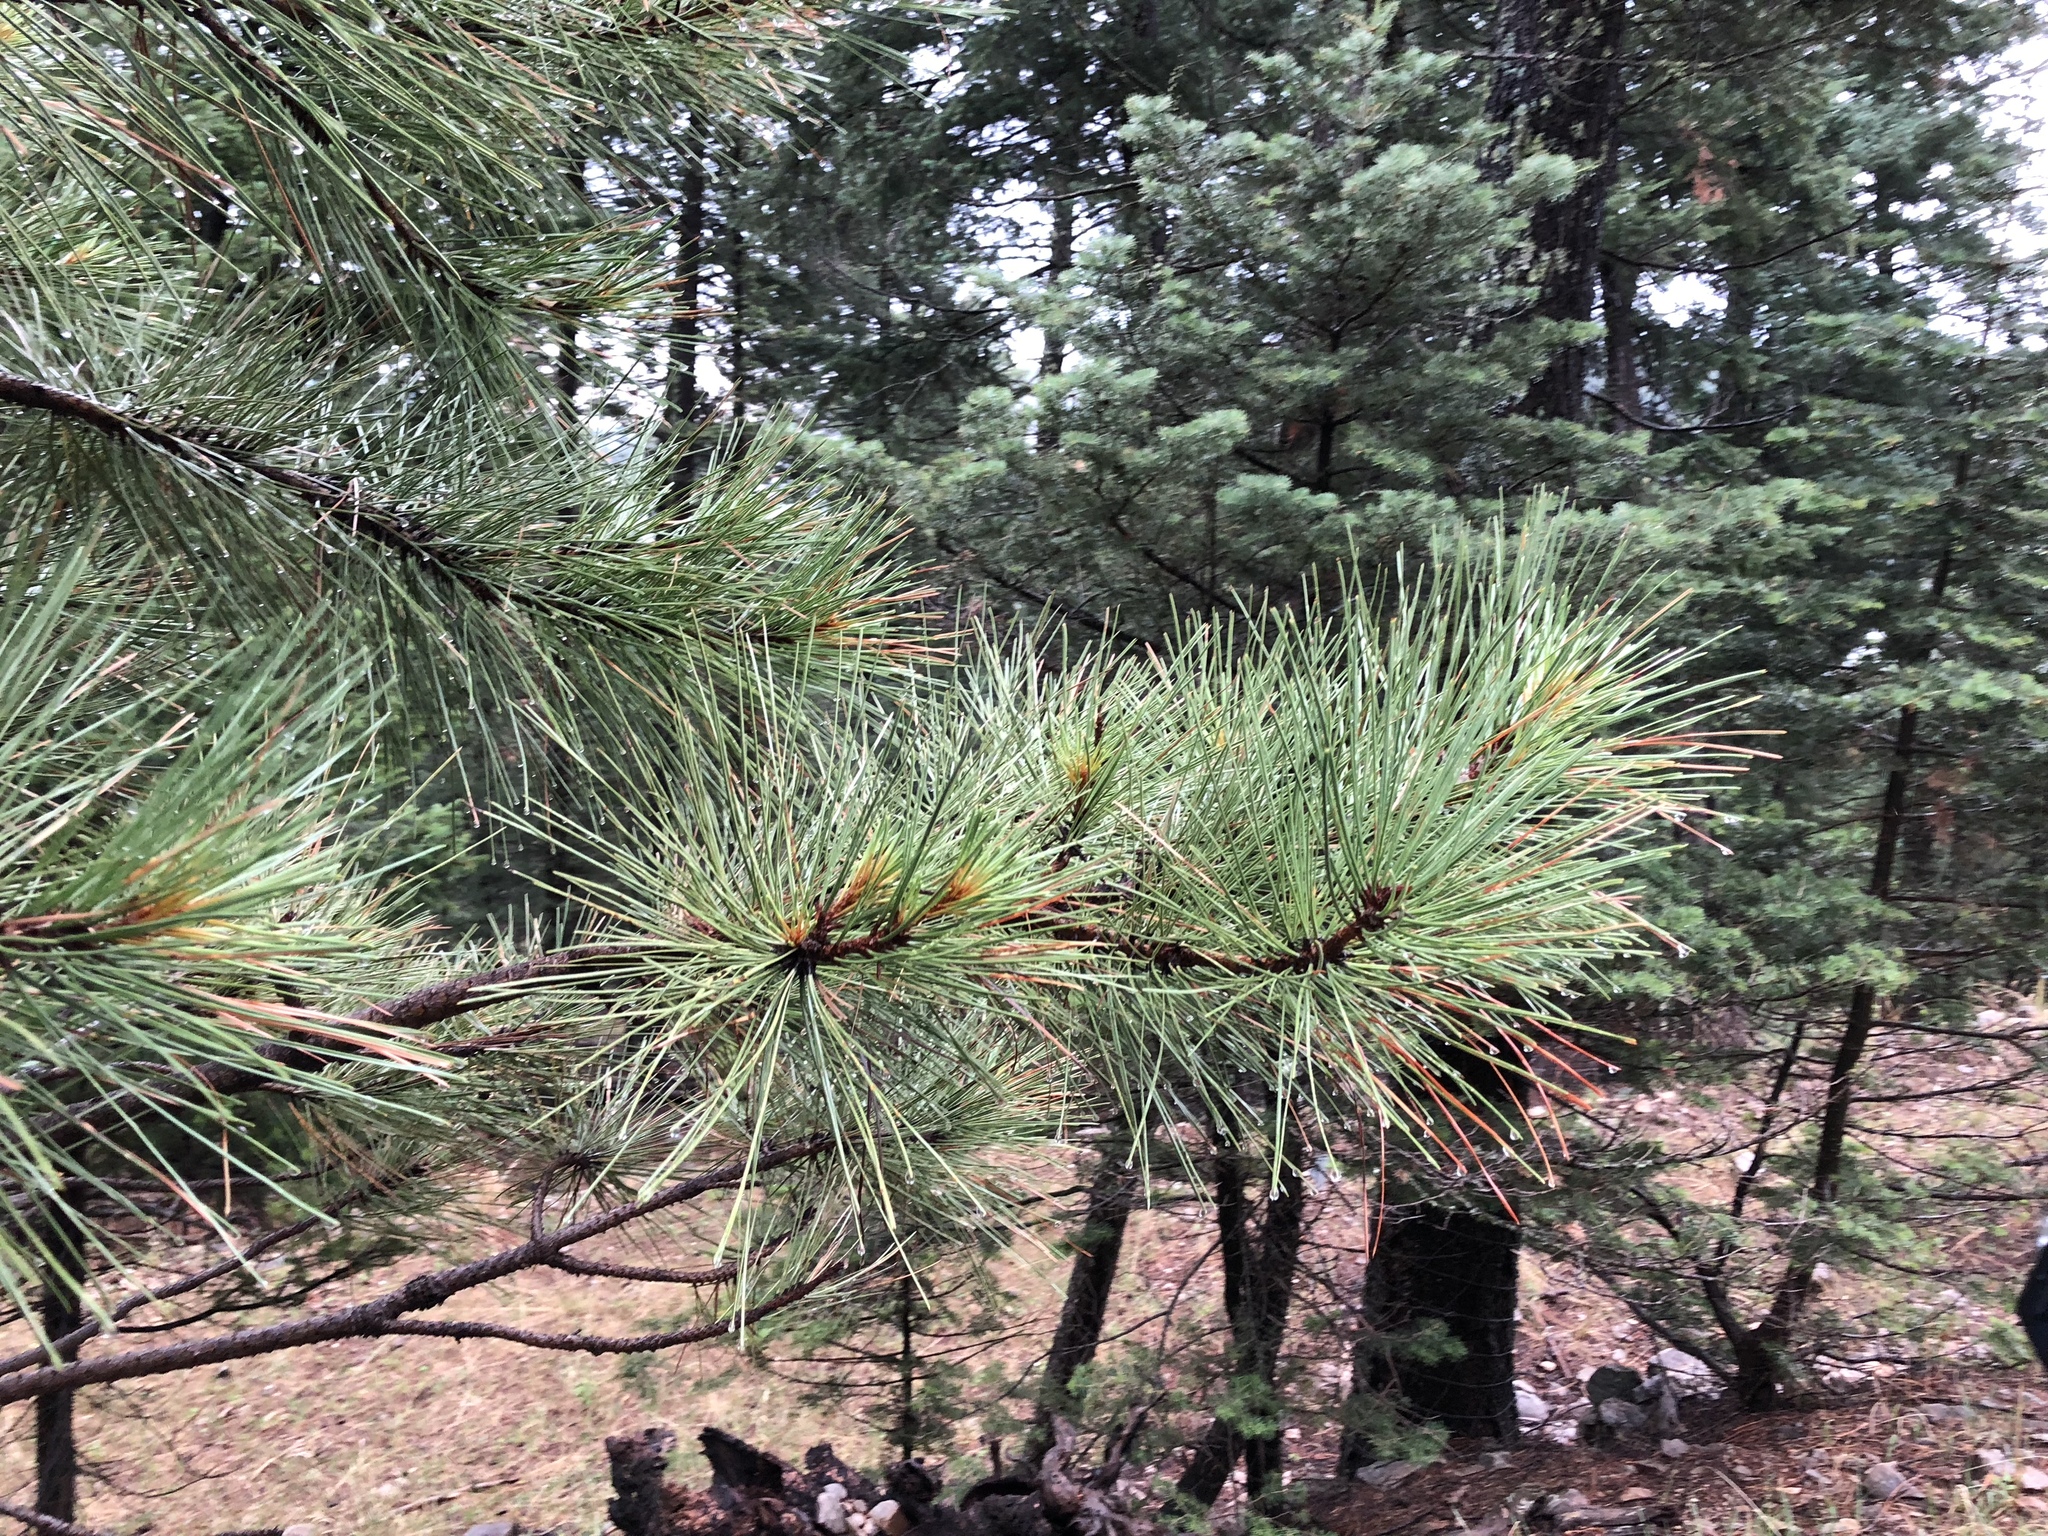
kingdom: Plantae
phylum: Tracheophyta
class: Pinopsida
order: Pinales
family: Pinaceae
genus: Pinus
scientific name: Pinus ponderosa
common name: Western yellow-pine
